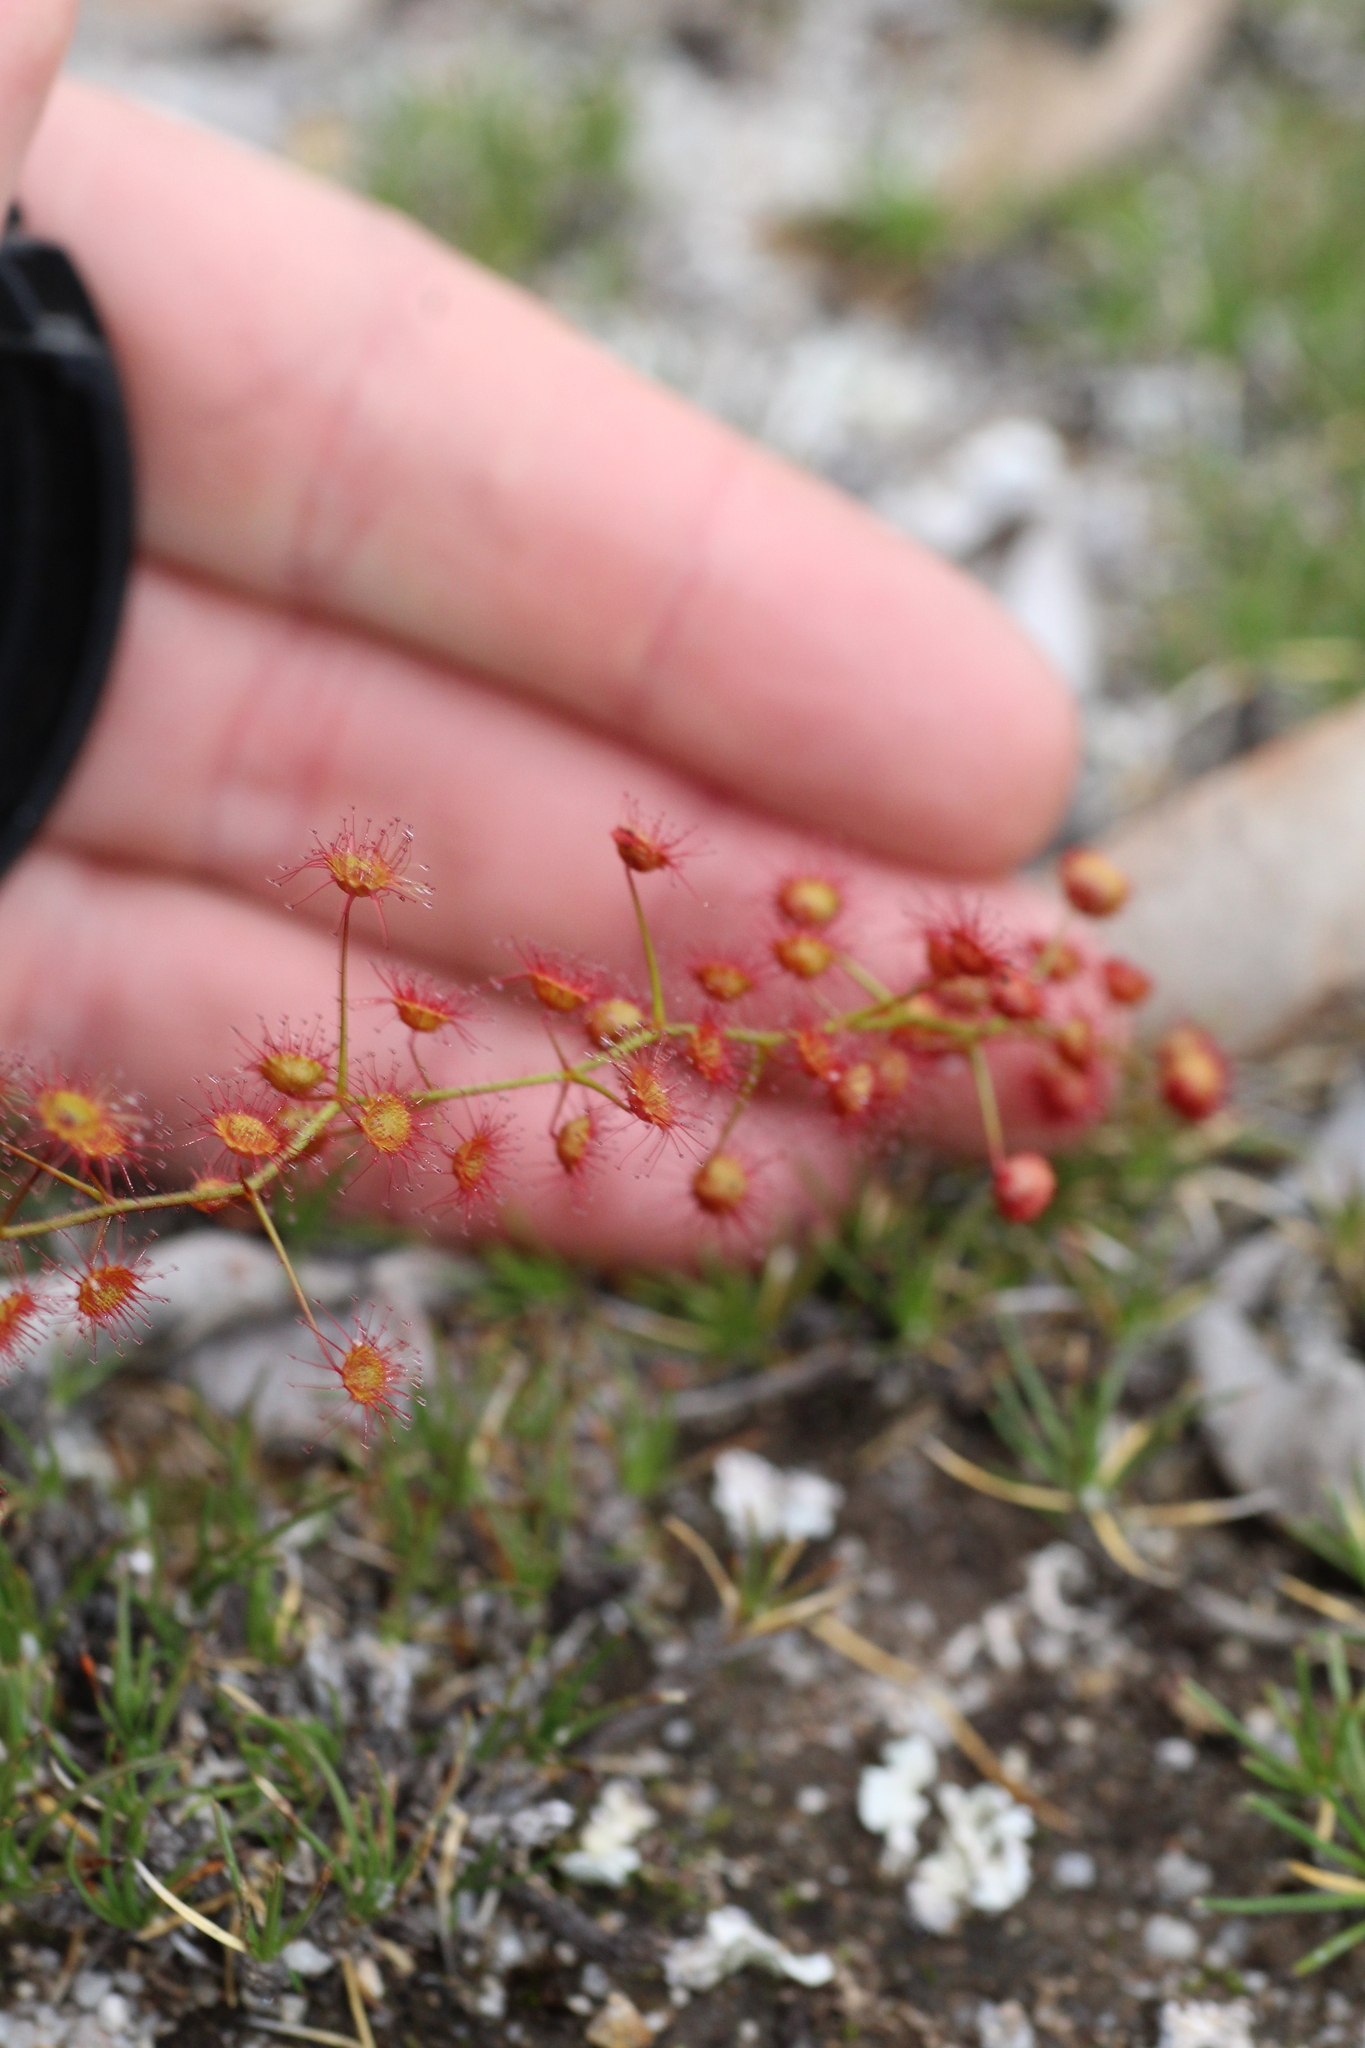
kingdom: Plantae
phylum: Tracheophyta
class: Magnoliopsida
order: Caryophyllales
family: Droseraceae
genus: Drosera
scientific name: Drosera macrantha
